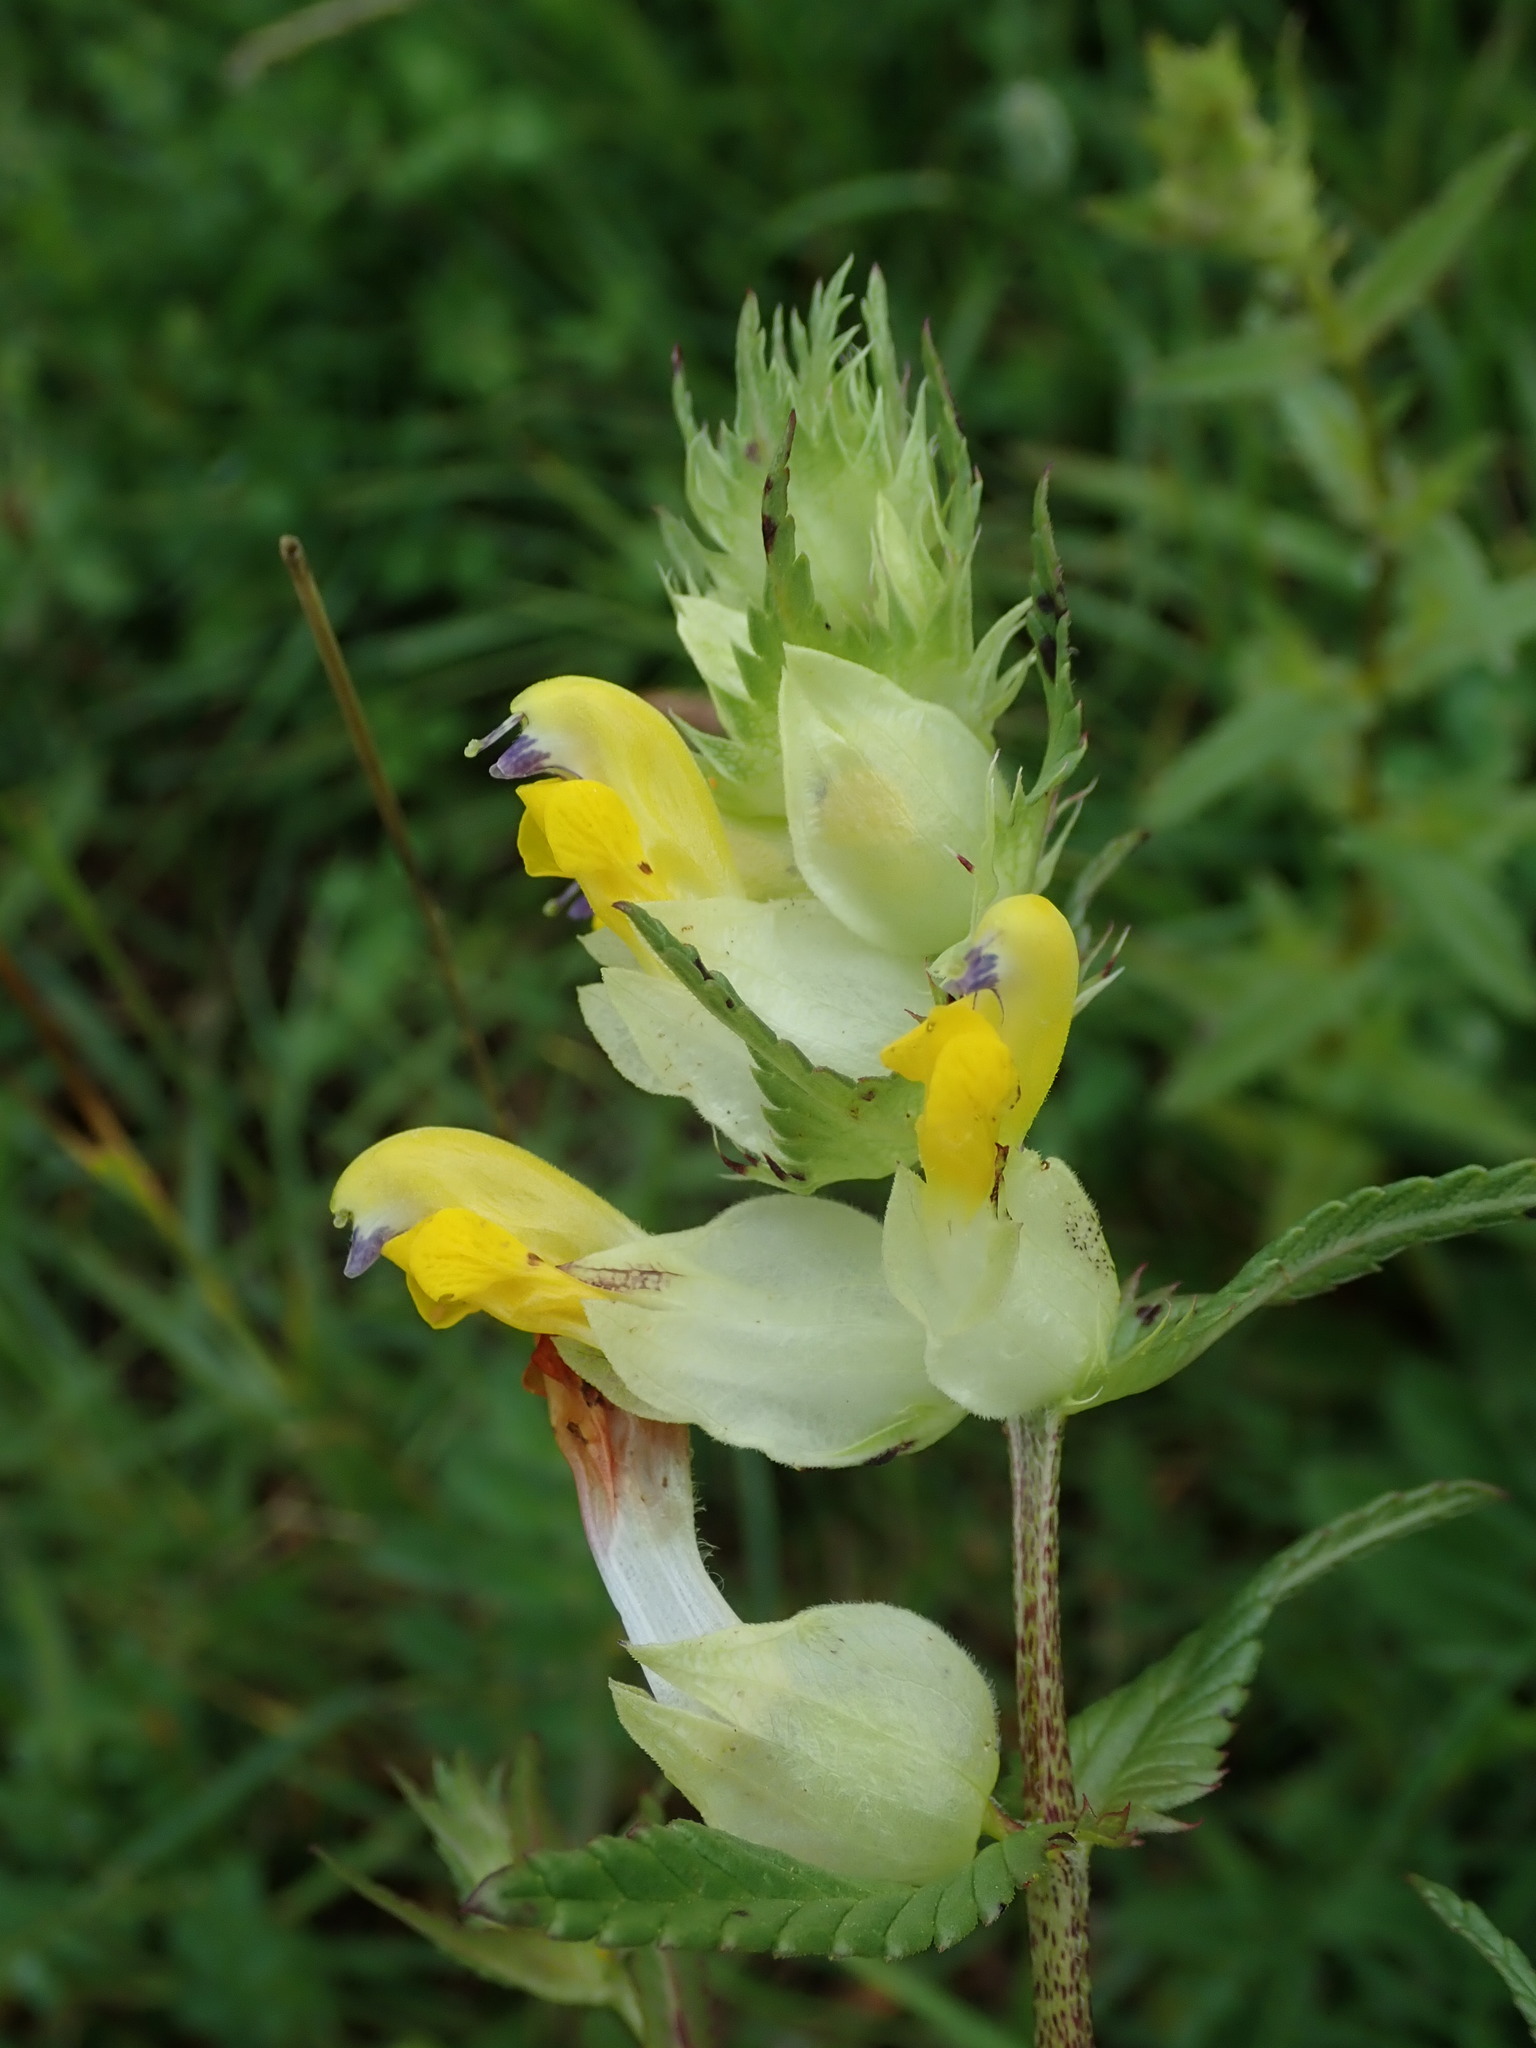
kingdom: Plantae
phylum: Tracheophyta
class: Magnoliopsida
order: Lamiales
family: Orobanchaceae
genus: Rhinanthus
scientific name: Rhinanthus minor
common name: Yellow-rattle
